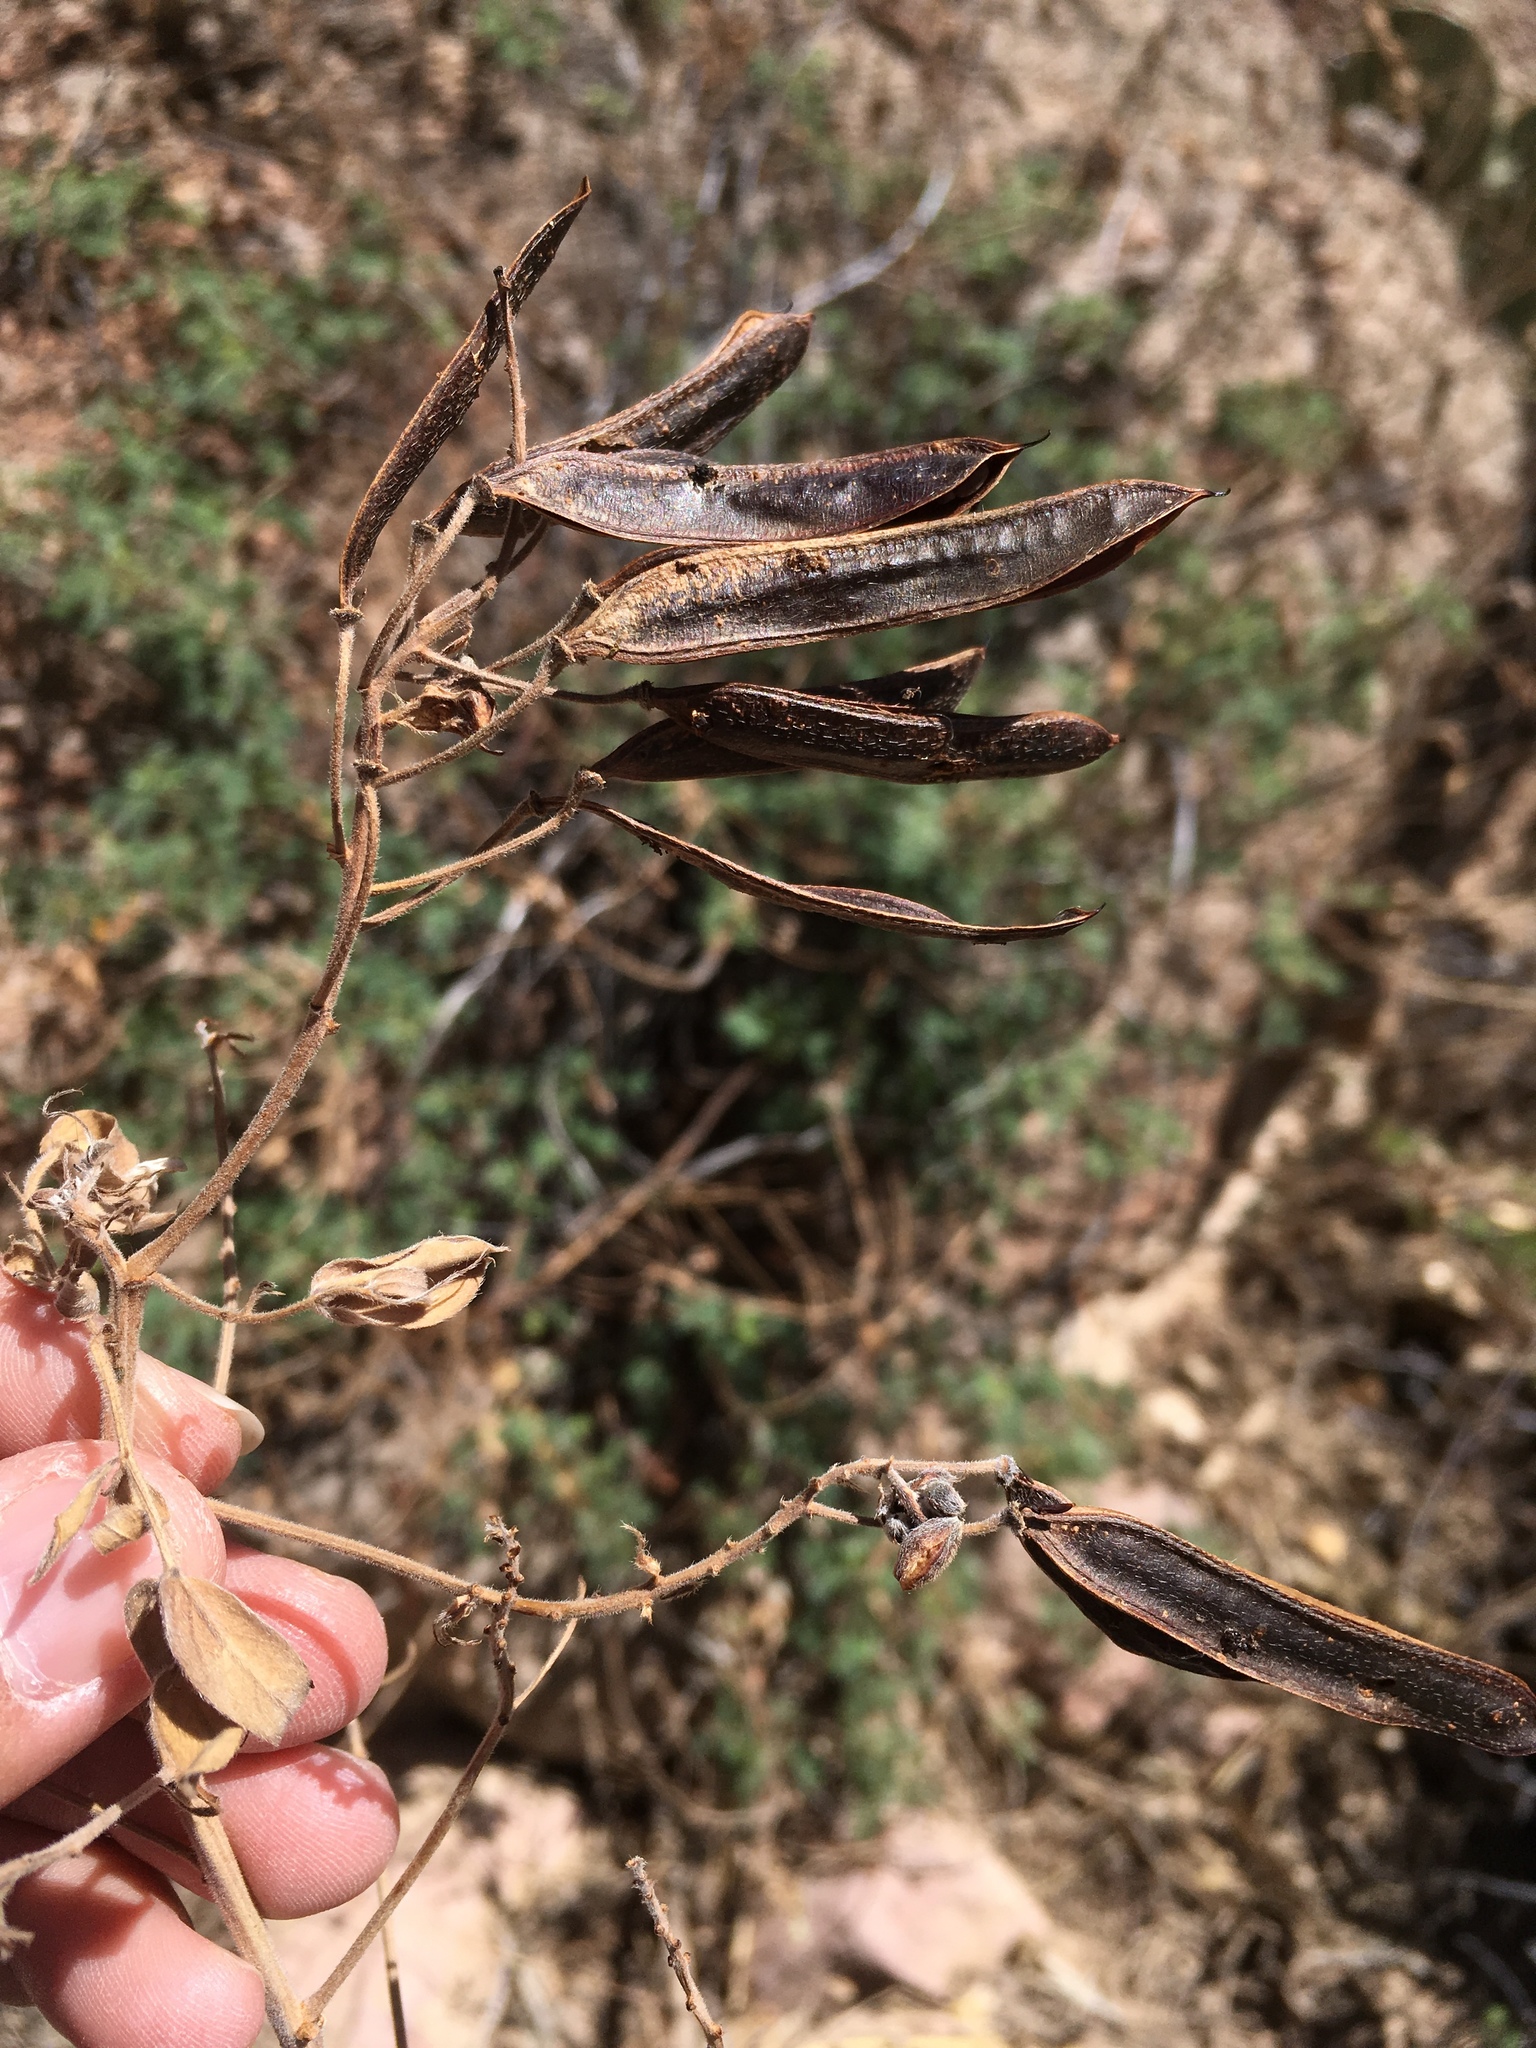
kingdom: Plantae
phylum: Tracheophyta
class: Magnoliopsida
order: Fabales
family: Fabaceae
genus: Senna
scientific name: Senna lindheimeriana
